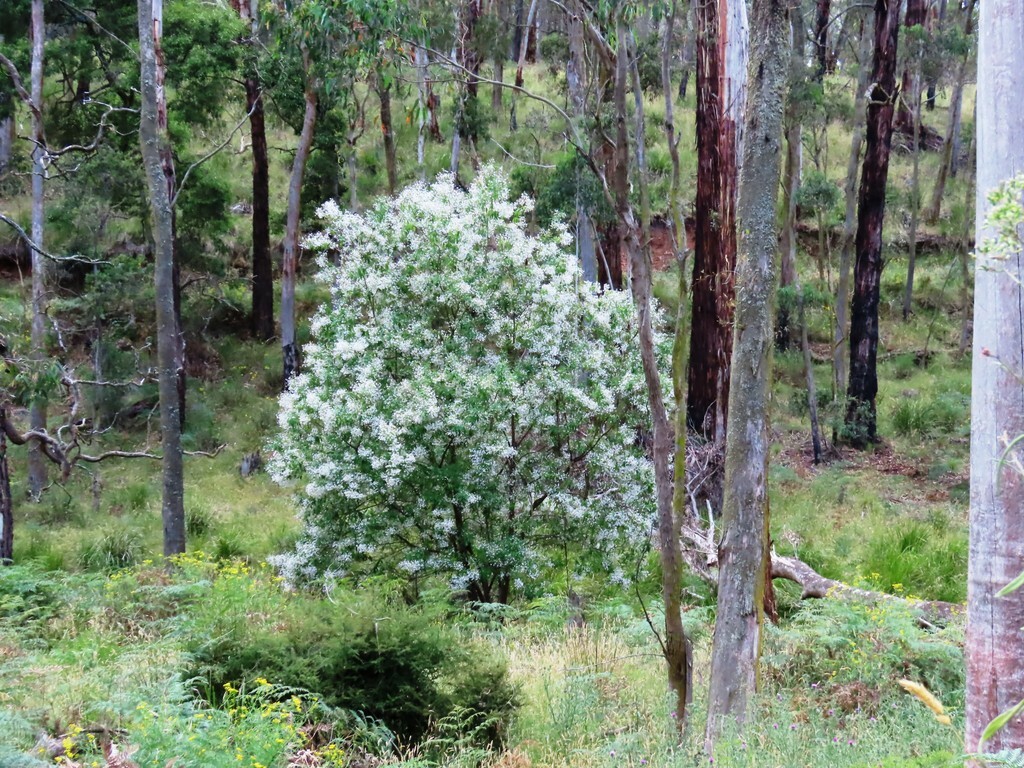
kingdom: Plantae
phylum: Tracheophyta
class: Magnoliopsida
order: Lamiales
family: Lamiaceae
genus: Prostanthera
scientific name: Prostanthera lasianthos
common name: Mountain-lilac
